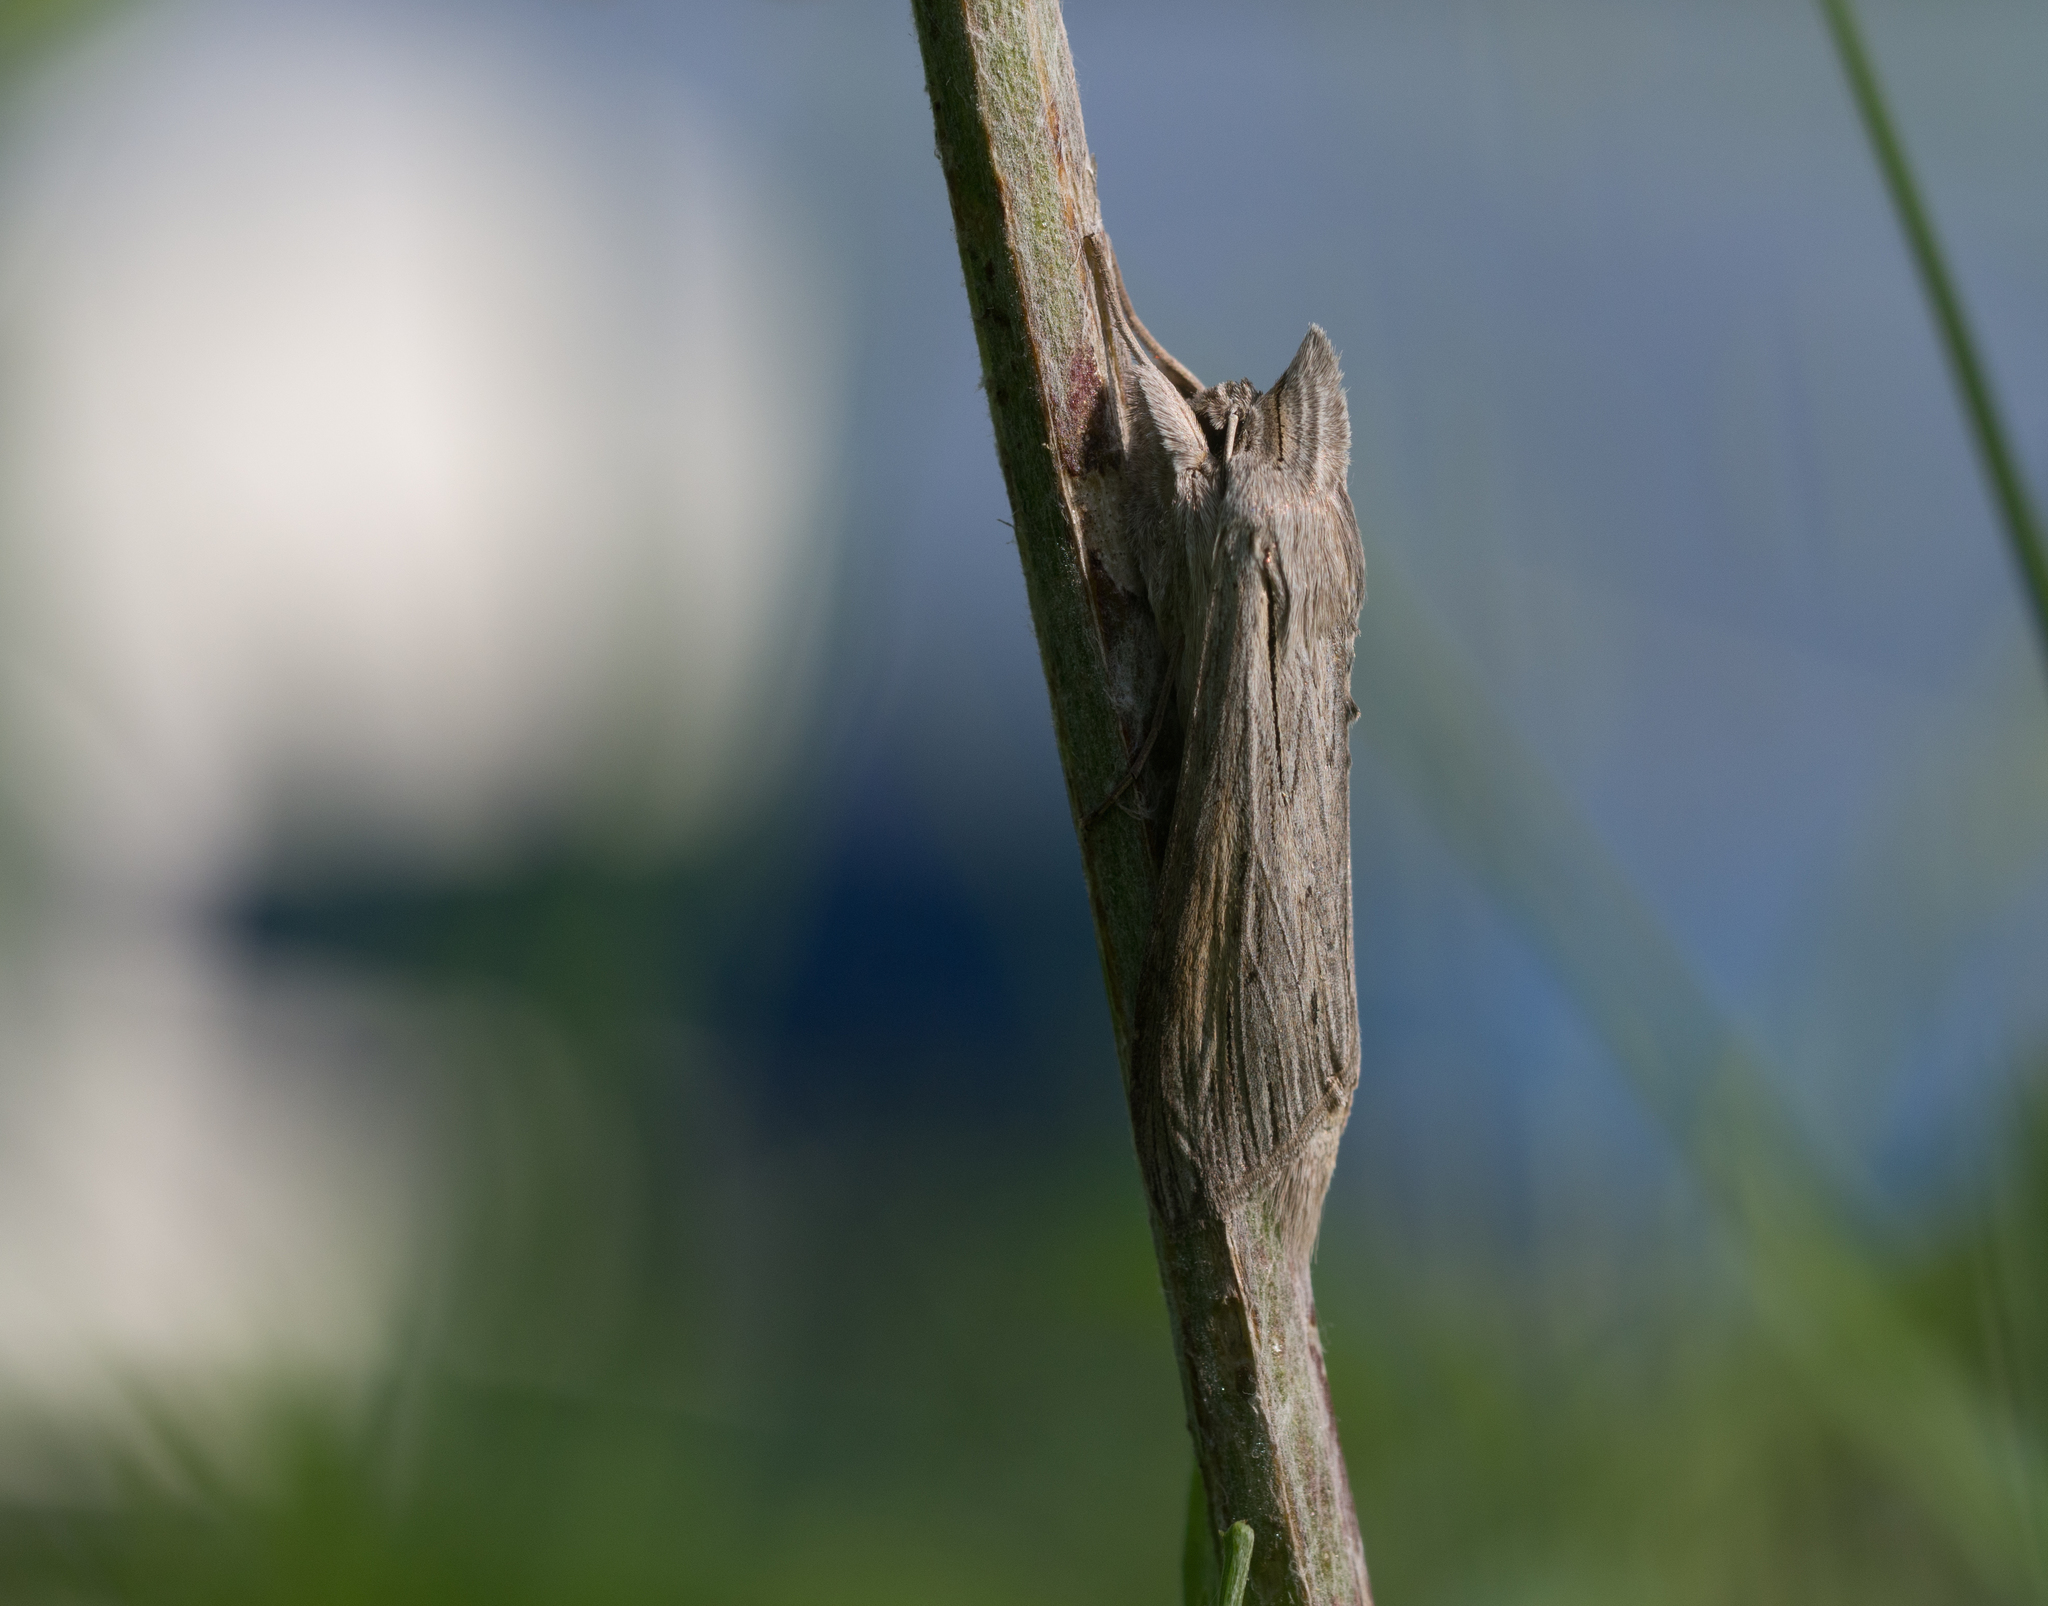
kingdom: Animalia
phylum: Arthropoda
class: Insecta
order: Lepidoptera
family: Noctuidae
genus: Cucullia
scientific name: Cucullia umbratica
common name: Shark
